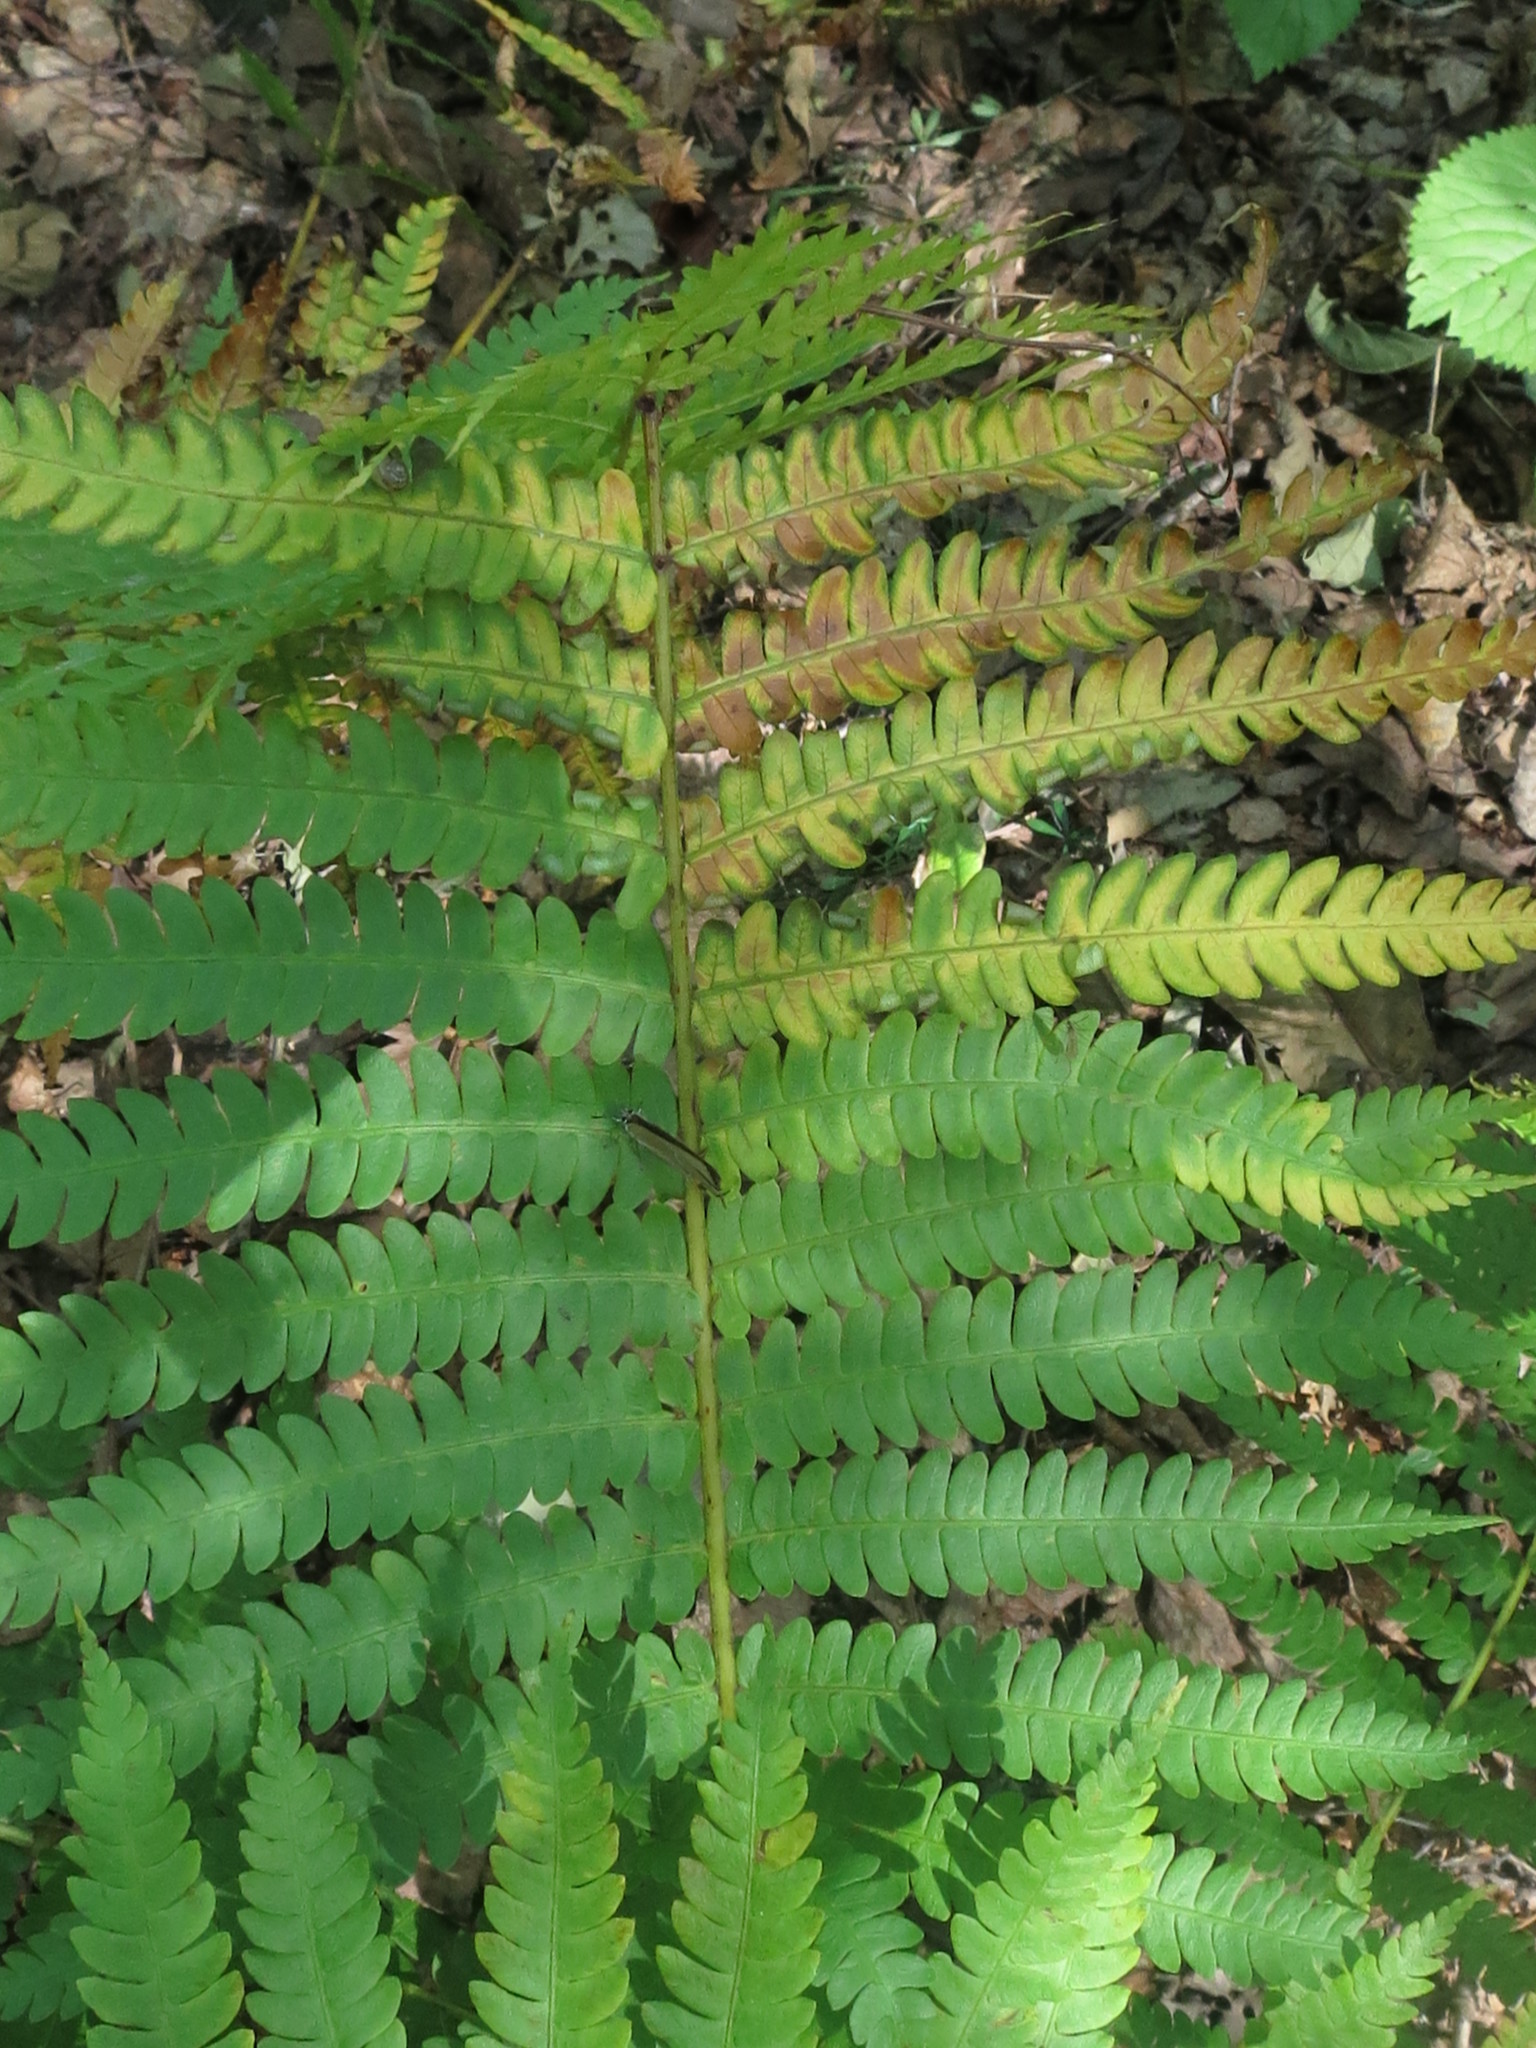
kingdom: Plantae
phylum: Tracheophyta
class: Polypodiopsida
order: Osmundales
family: Osmundaceae
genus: Osmundastrum
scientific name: Osmundastrum cinnamomeum
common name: Cinnamon fern
